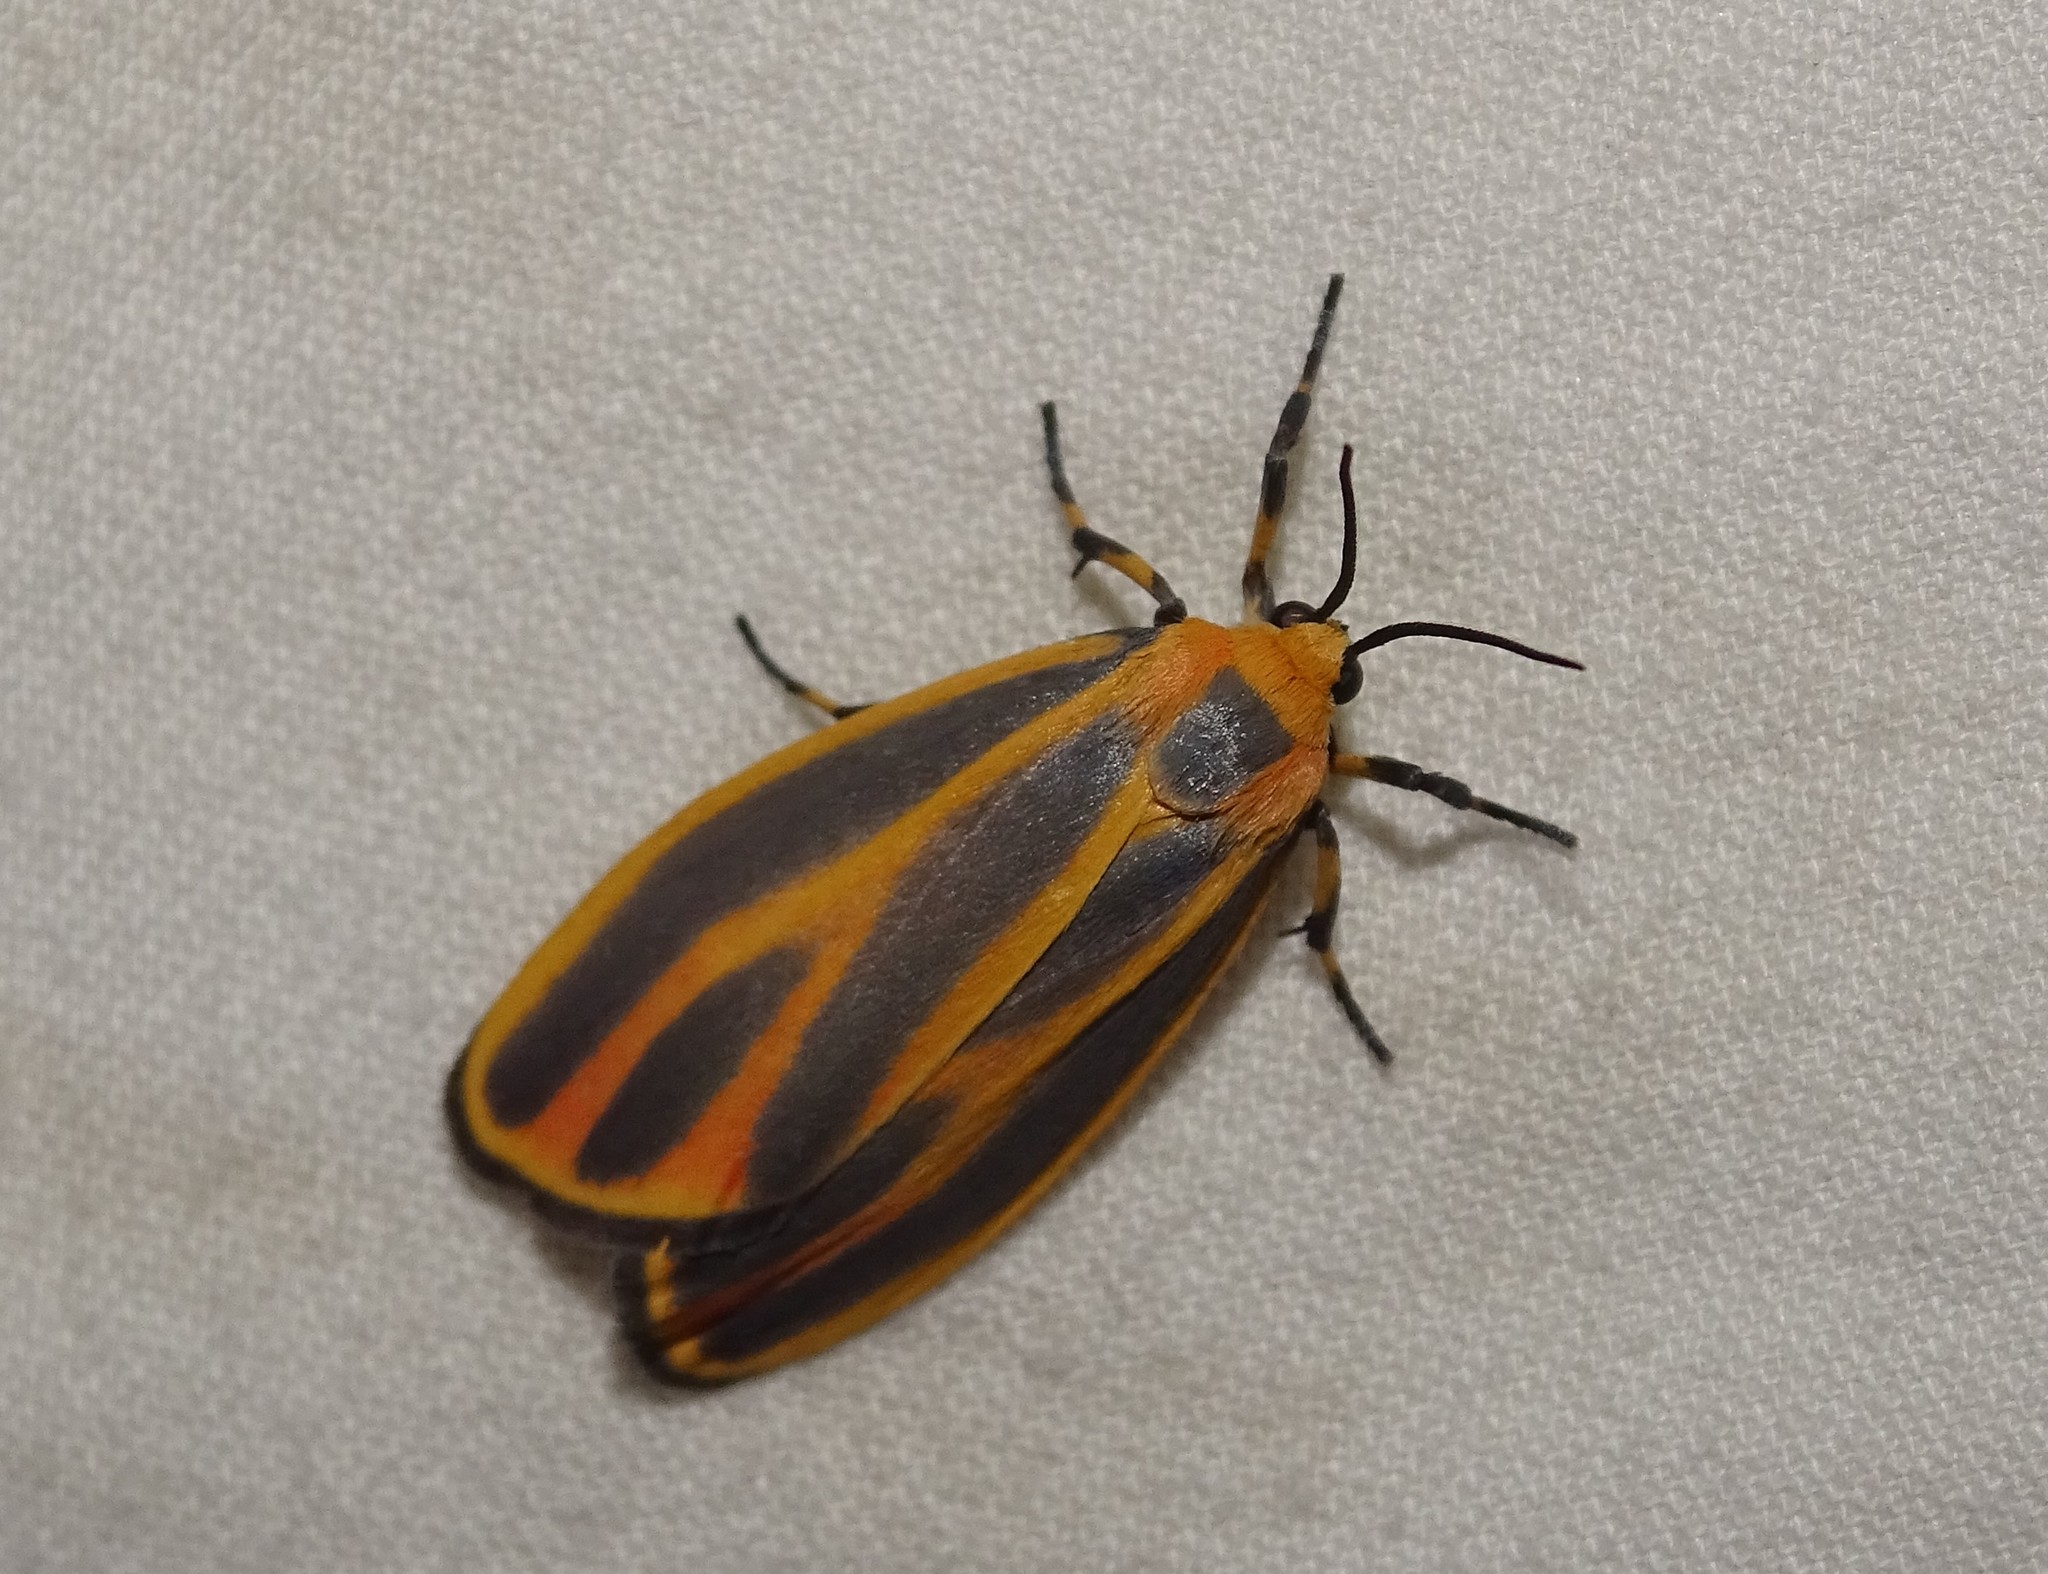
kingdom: Animalia
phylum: Arthropoda
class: Insecta
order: Lepidoptera
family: Erebidae
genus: Hypoprepia
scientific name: Hypoprepia fucosa
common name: Painted lichen moth
